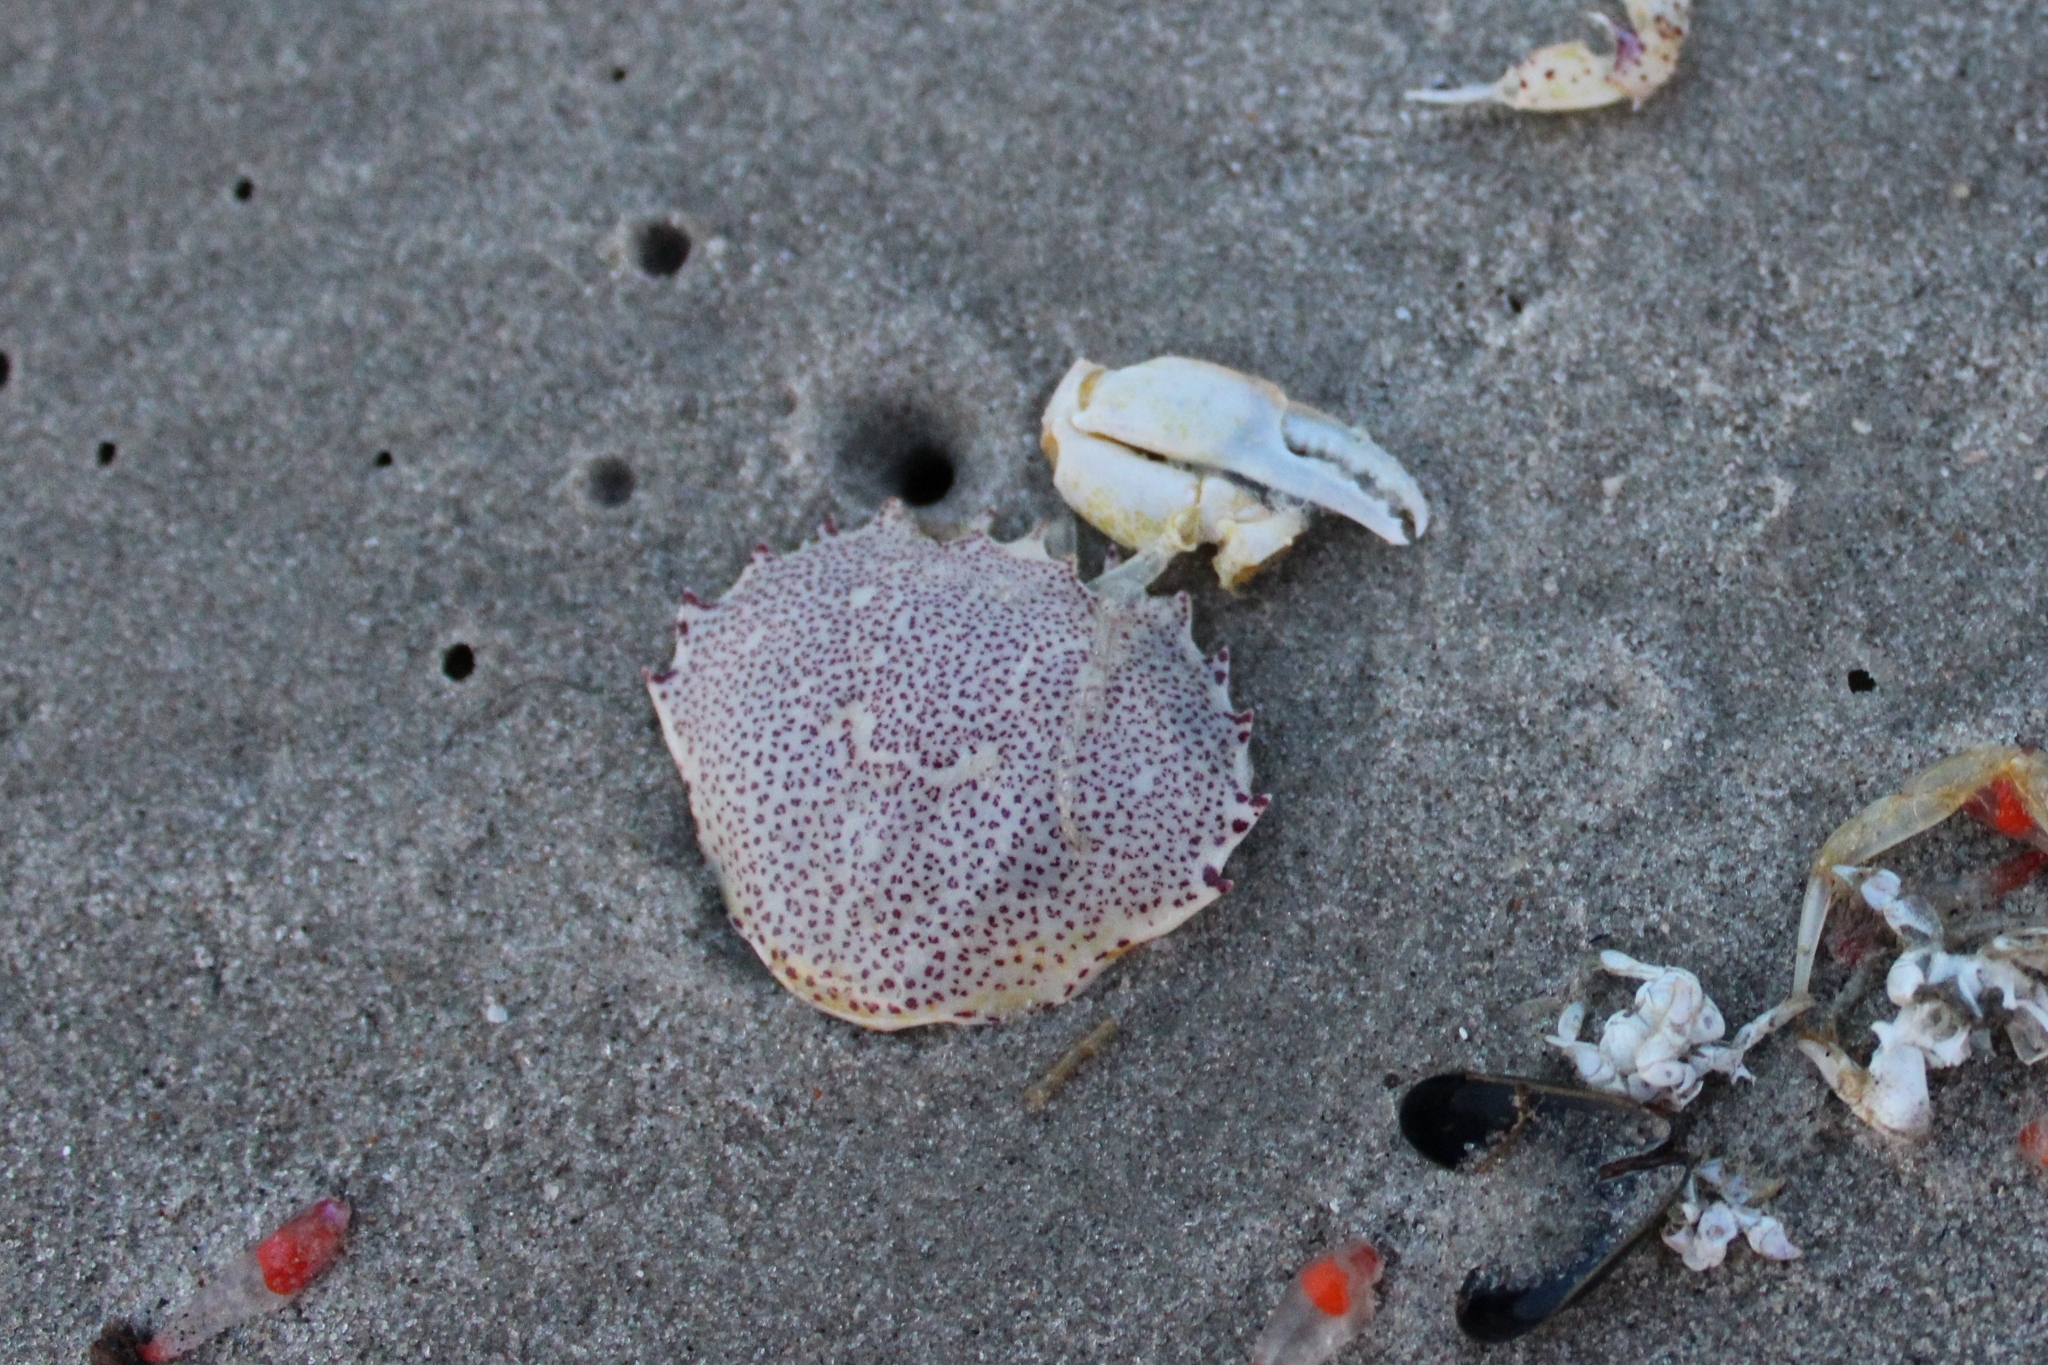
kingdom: Animalia
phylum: Arthropoda
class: Malacostraca
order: Decapoda
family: Ovalipidae
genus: Ovalipes
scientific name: Ovalipes ocellatus
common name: Lady crab
